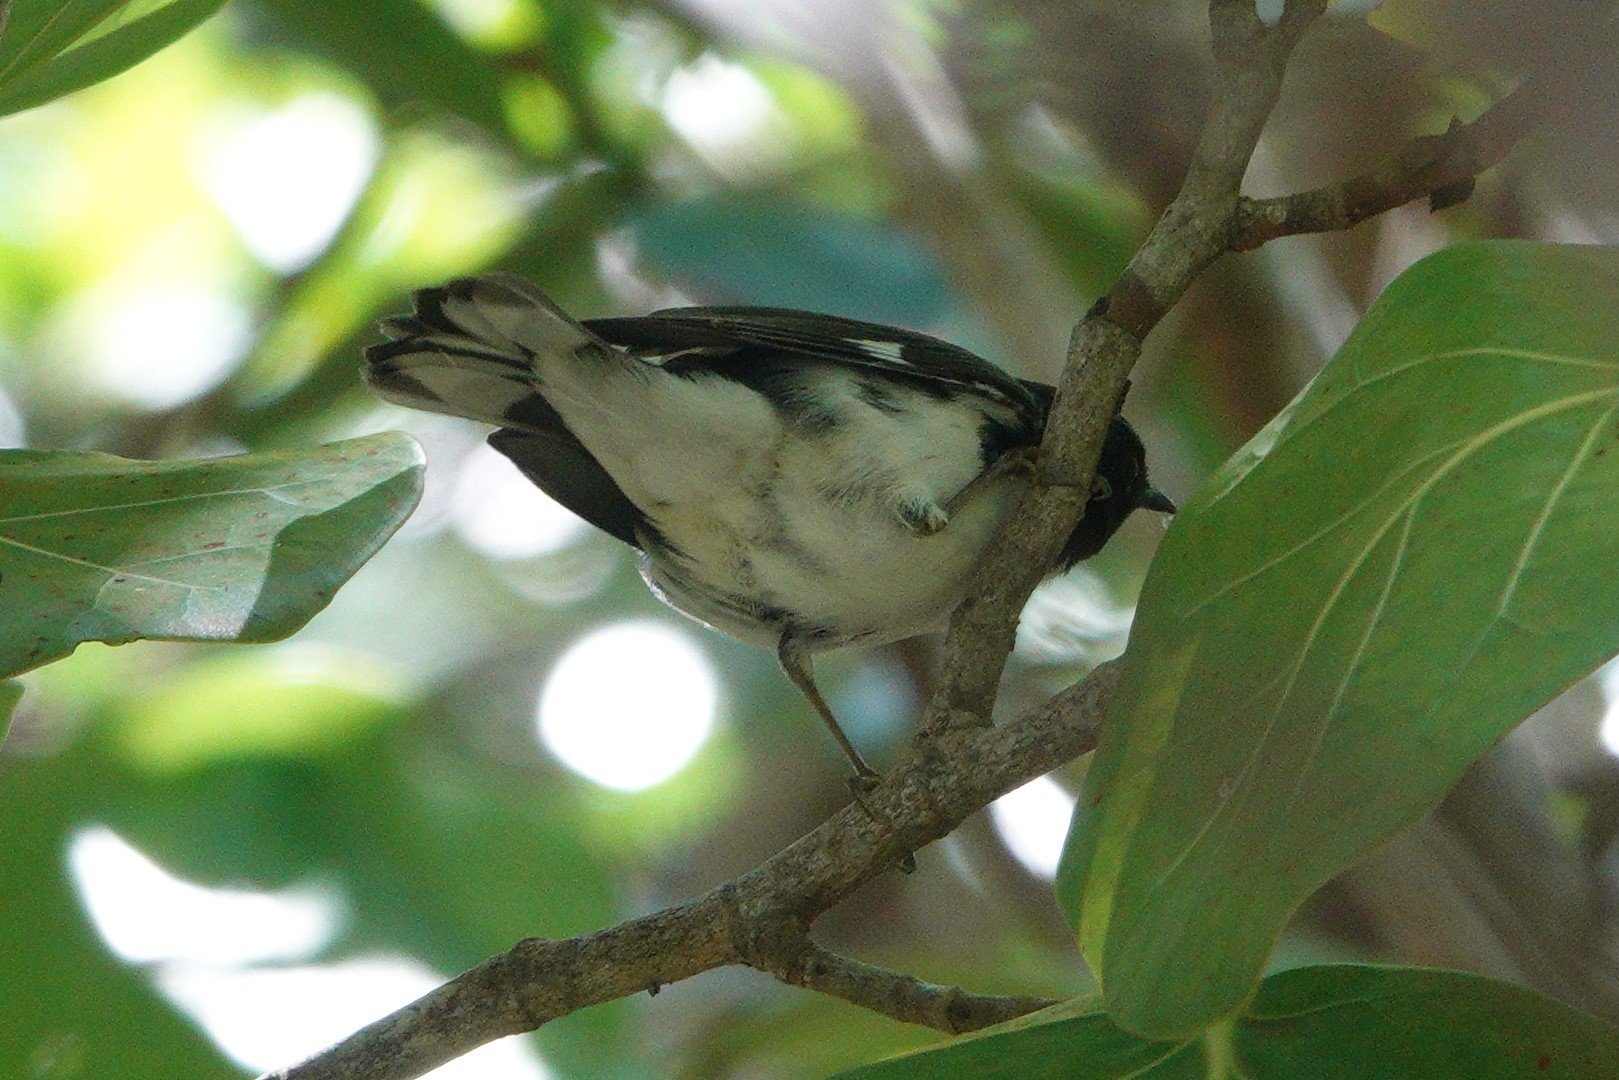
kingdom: Animalia
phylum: Chordata
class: Aves
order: Passeriformes
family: Parulidae
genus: Setophaga
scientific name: Setophaga caerulescens
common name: Black-throated blue warbler
